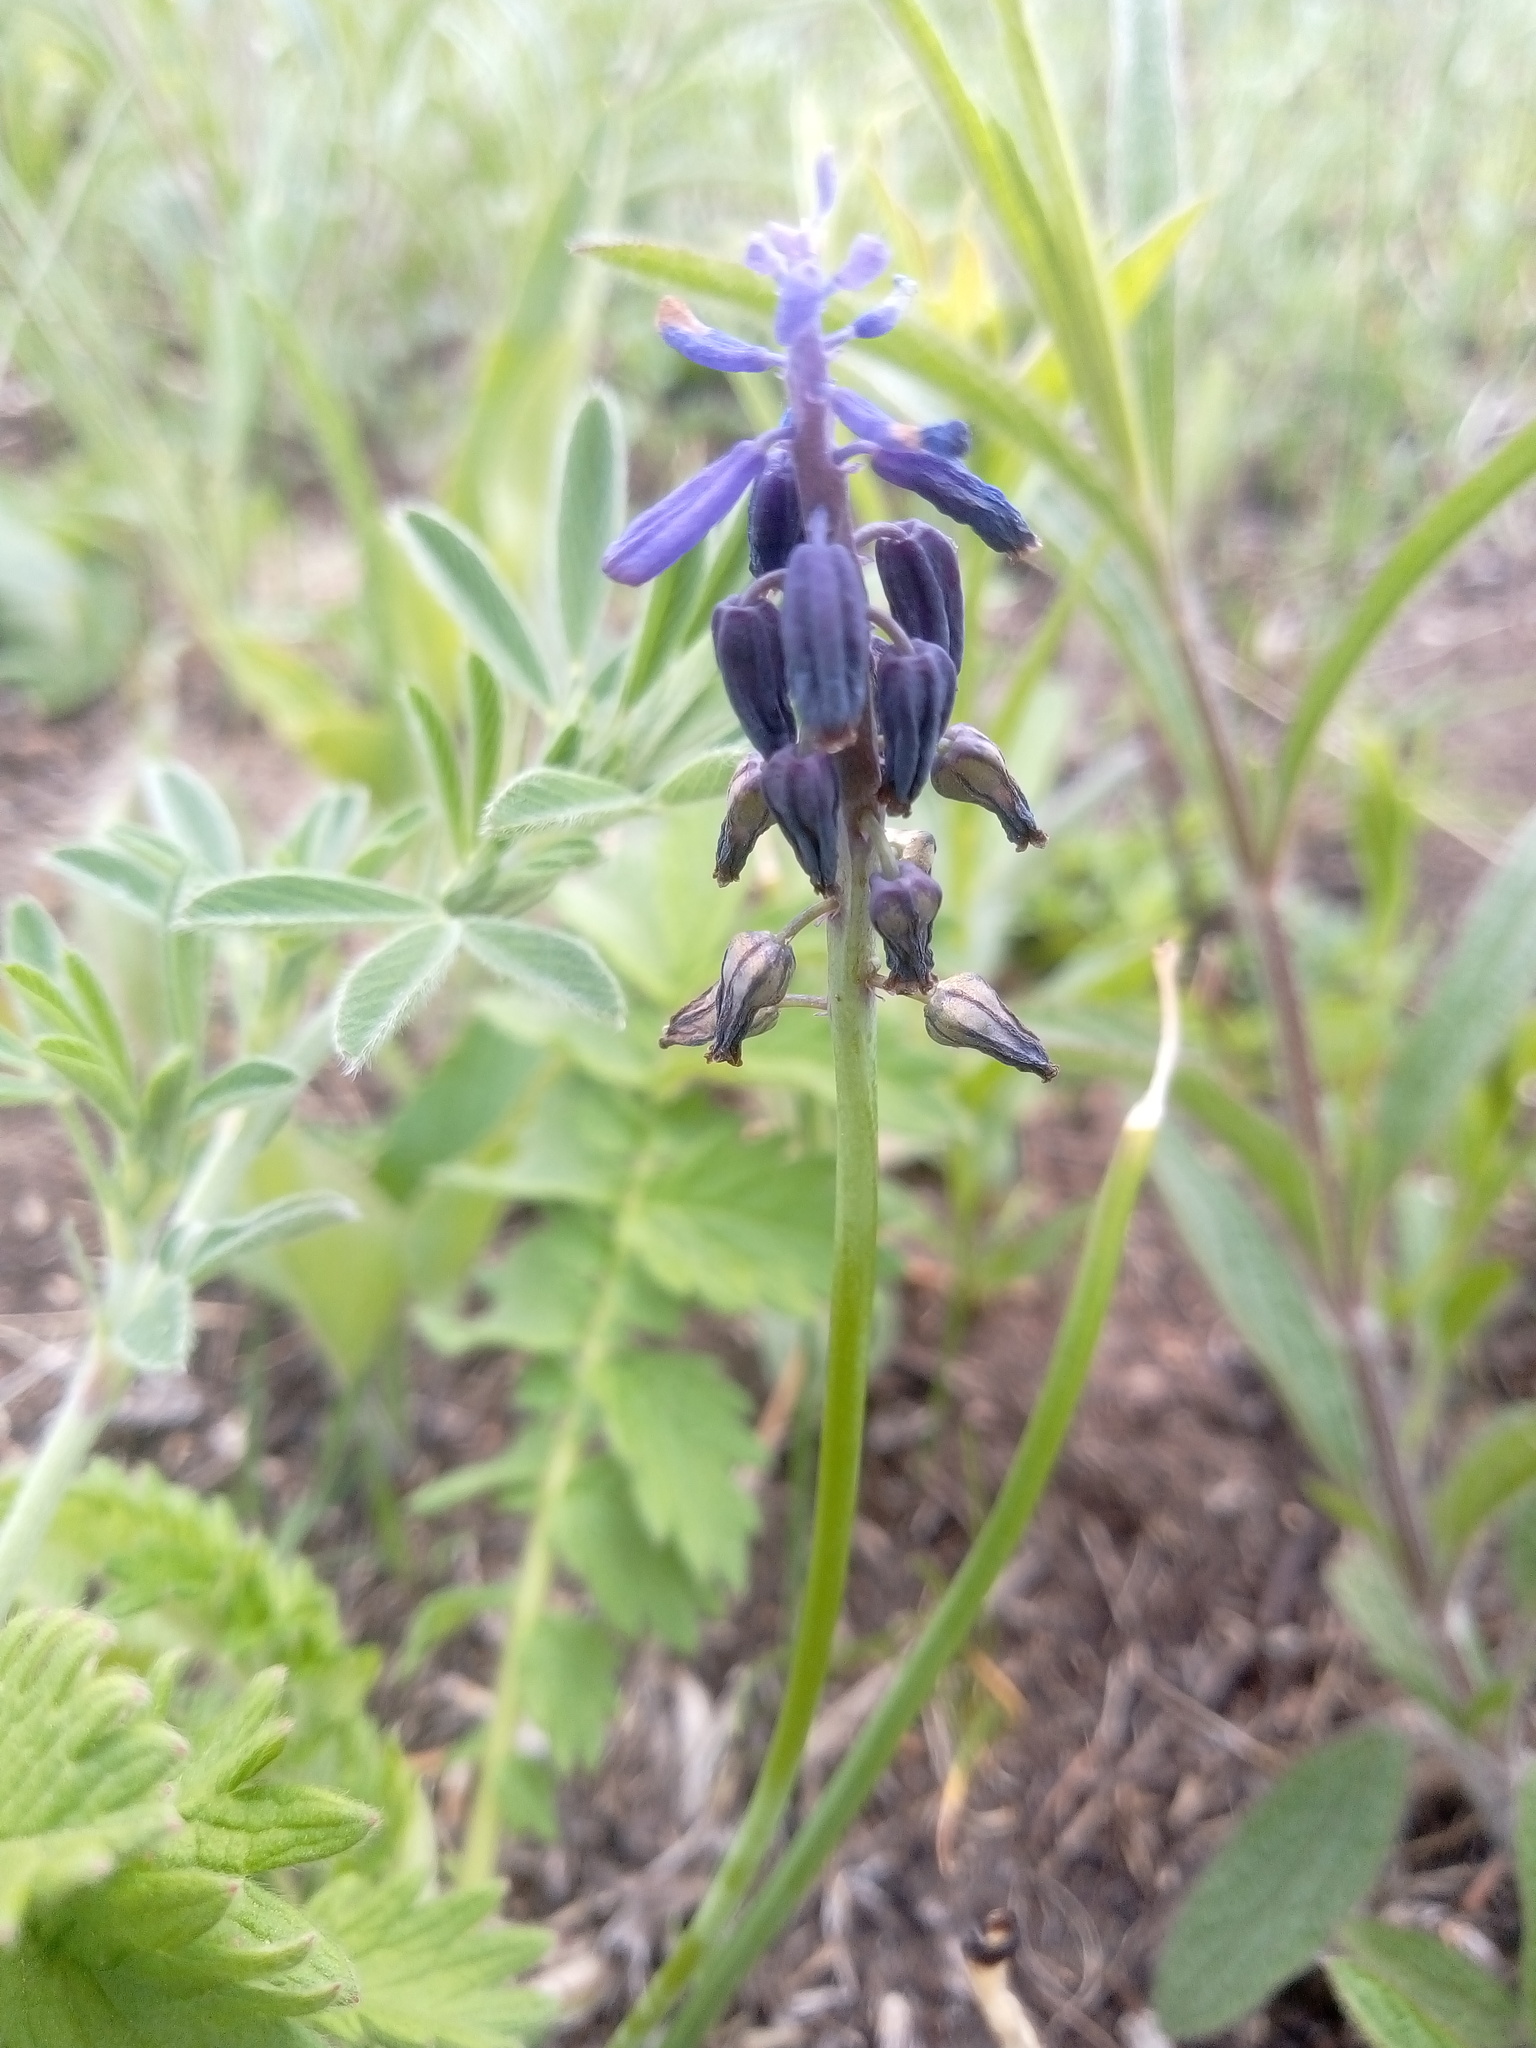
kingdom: Plantae
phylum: Tracheophyta
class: Liliopsida
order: Asparagales
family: Asparagaceae
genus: Muscari
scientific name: Muscari neglectum
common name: Grape-hyacinth
